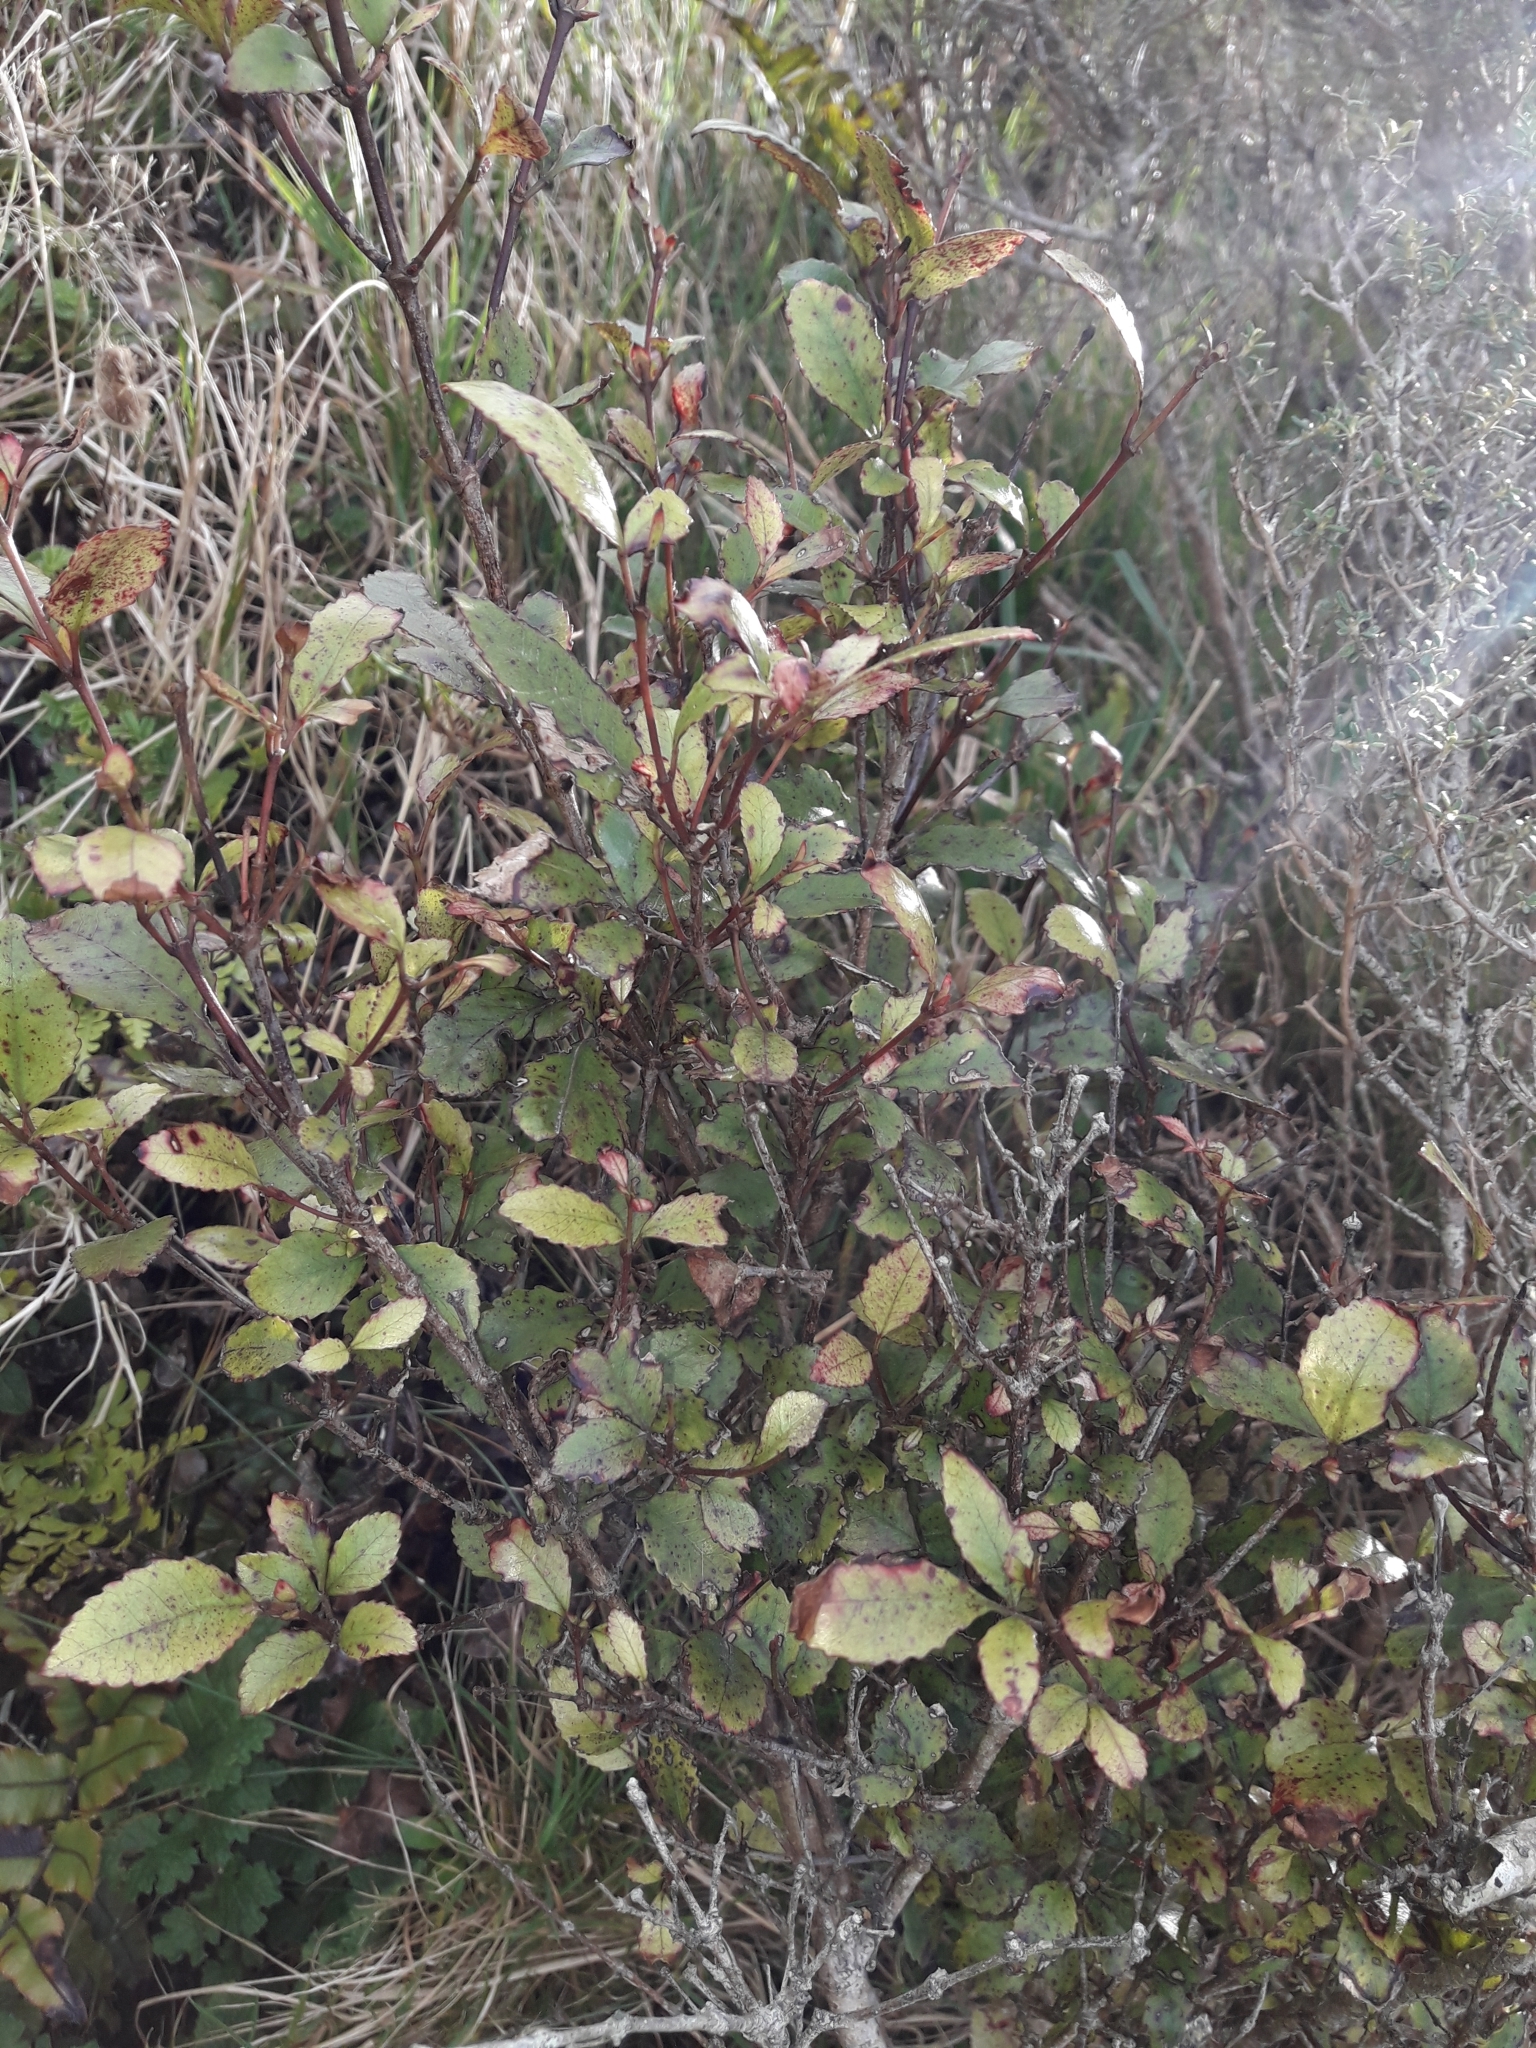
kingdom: Plantae
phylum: Tracheophyta
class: Magnoliopsida
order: Oxalidales
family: Cunoniaceae
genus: Pterophylla
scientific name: Pterophylla racemosa
